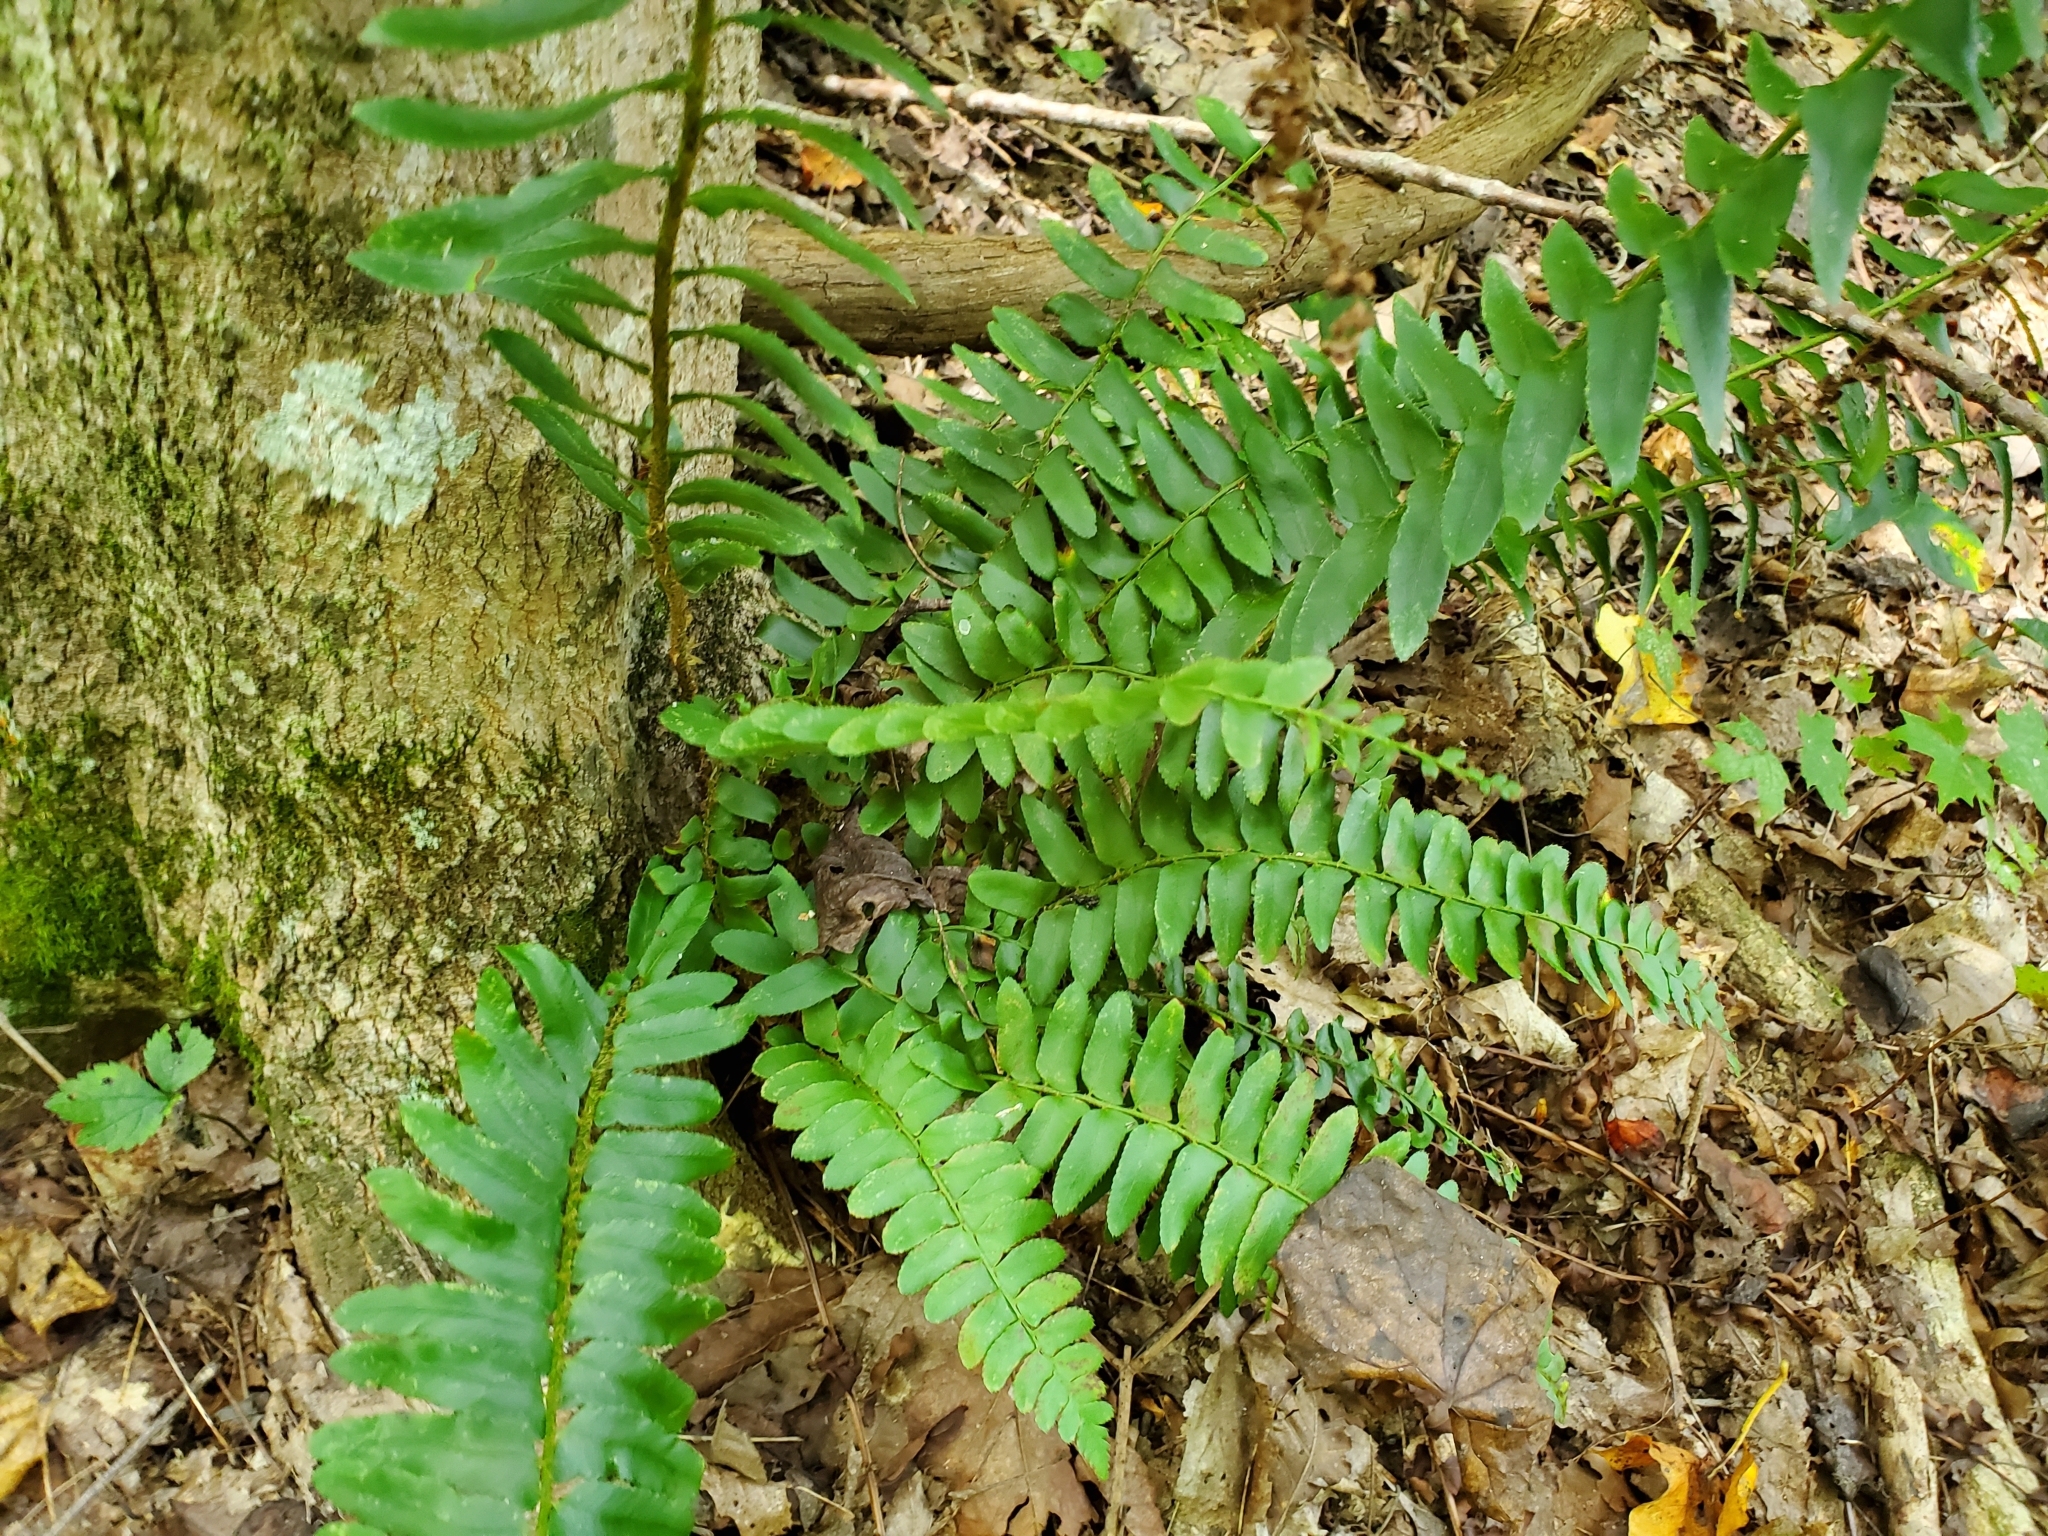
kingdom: Plantae
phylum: Tracheophyta
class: Polypodiopsida
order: Polypodiales
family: Dryopteridaceae
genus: Polystichum
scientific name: Polystichum acrostichoides
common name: Christmas fern
